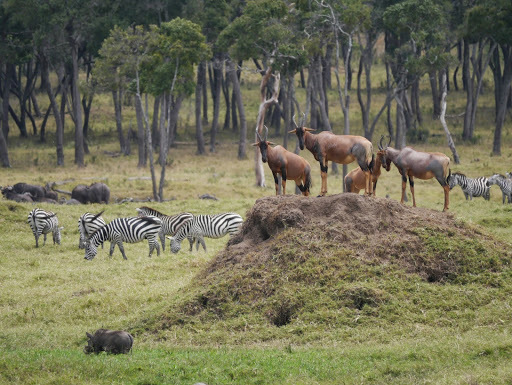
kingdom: Animalia
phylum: Chordata
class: Mammalia
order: Artiodactyla
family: Suidae
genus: Phacochoerus
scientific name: Phacochoerus africanus
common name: Common warthog
